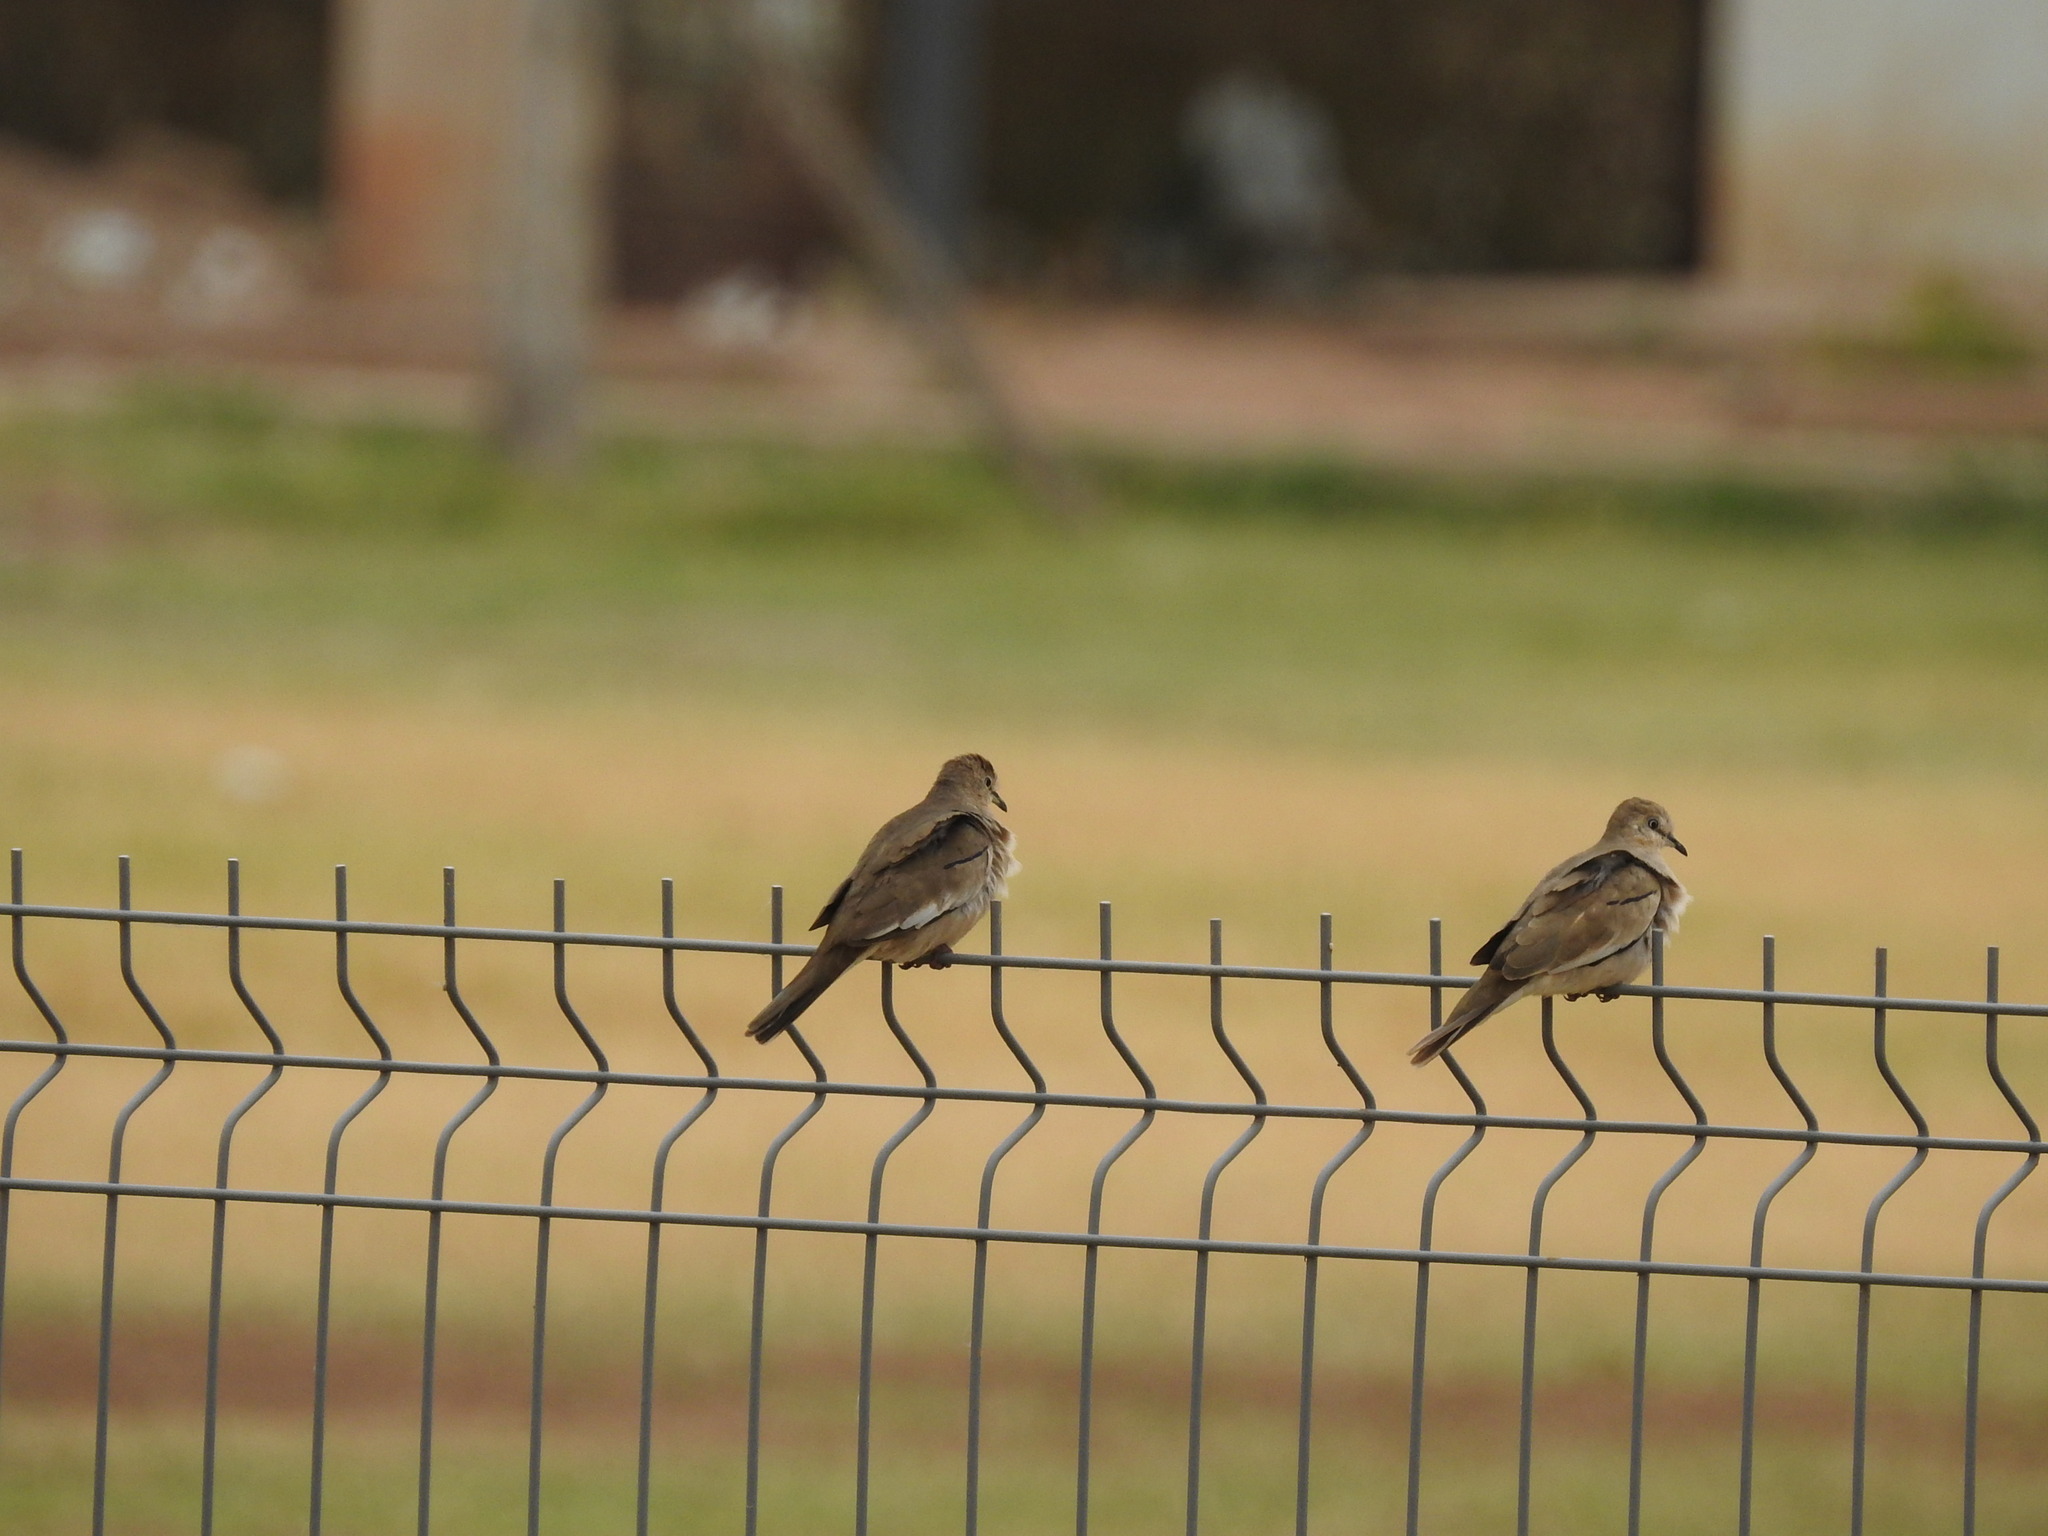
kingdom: Animalia
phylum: Chordata
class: Aves
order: Columbiformes
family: Columbidae
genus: Columbina
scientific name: Columbina picui
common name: Picui ground dove
